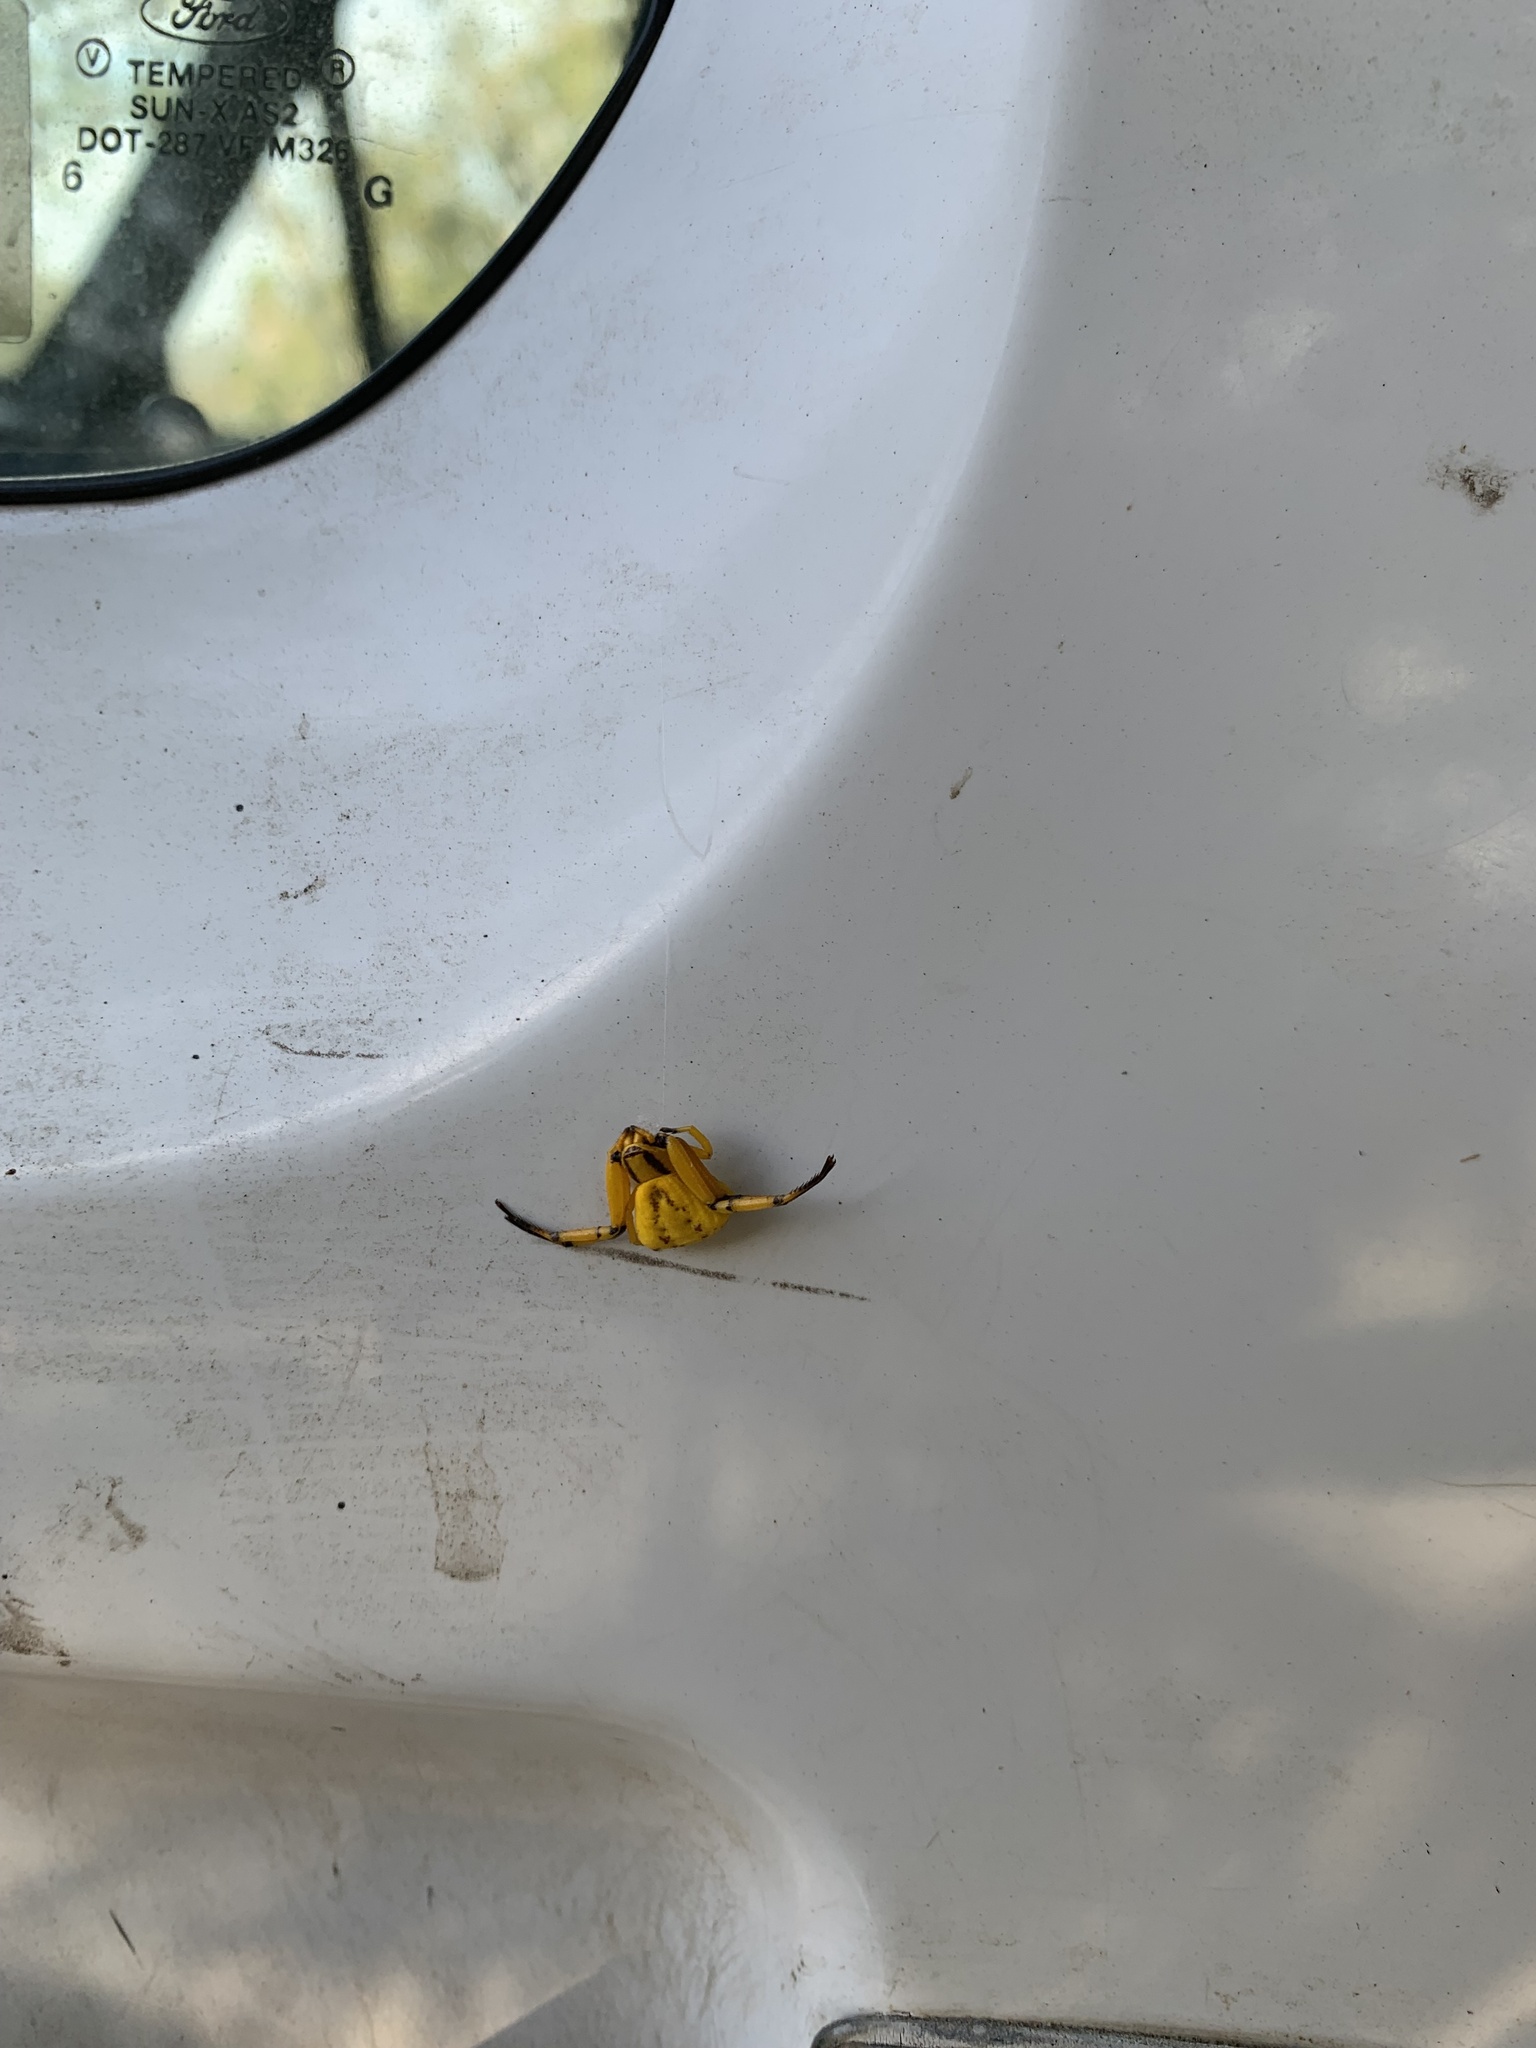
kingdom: Animalia
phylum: Arthropoda
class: Arachnida
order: Araneae
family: Thomisidae
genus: Misumenoides
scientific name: Misumenoides formosipes
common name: White-banded crab spider
